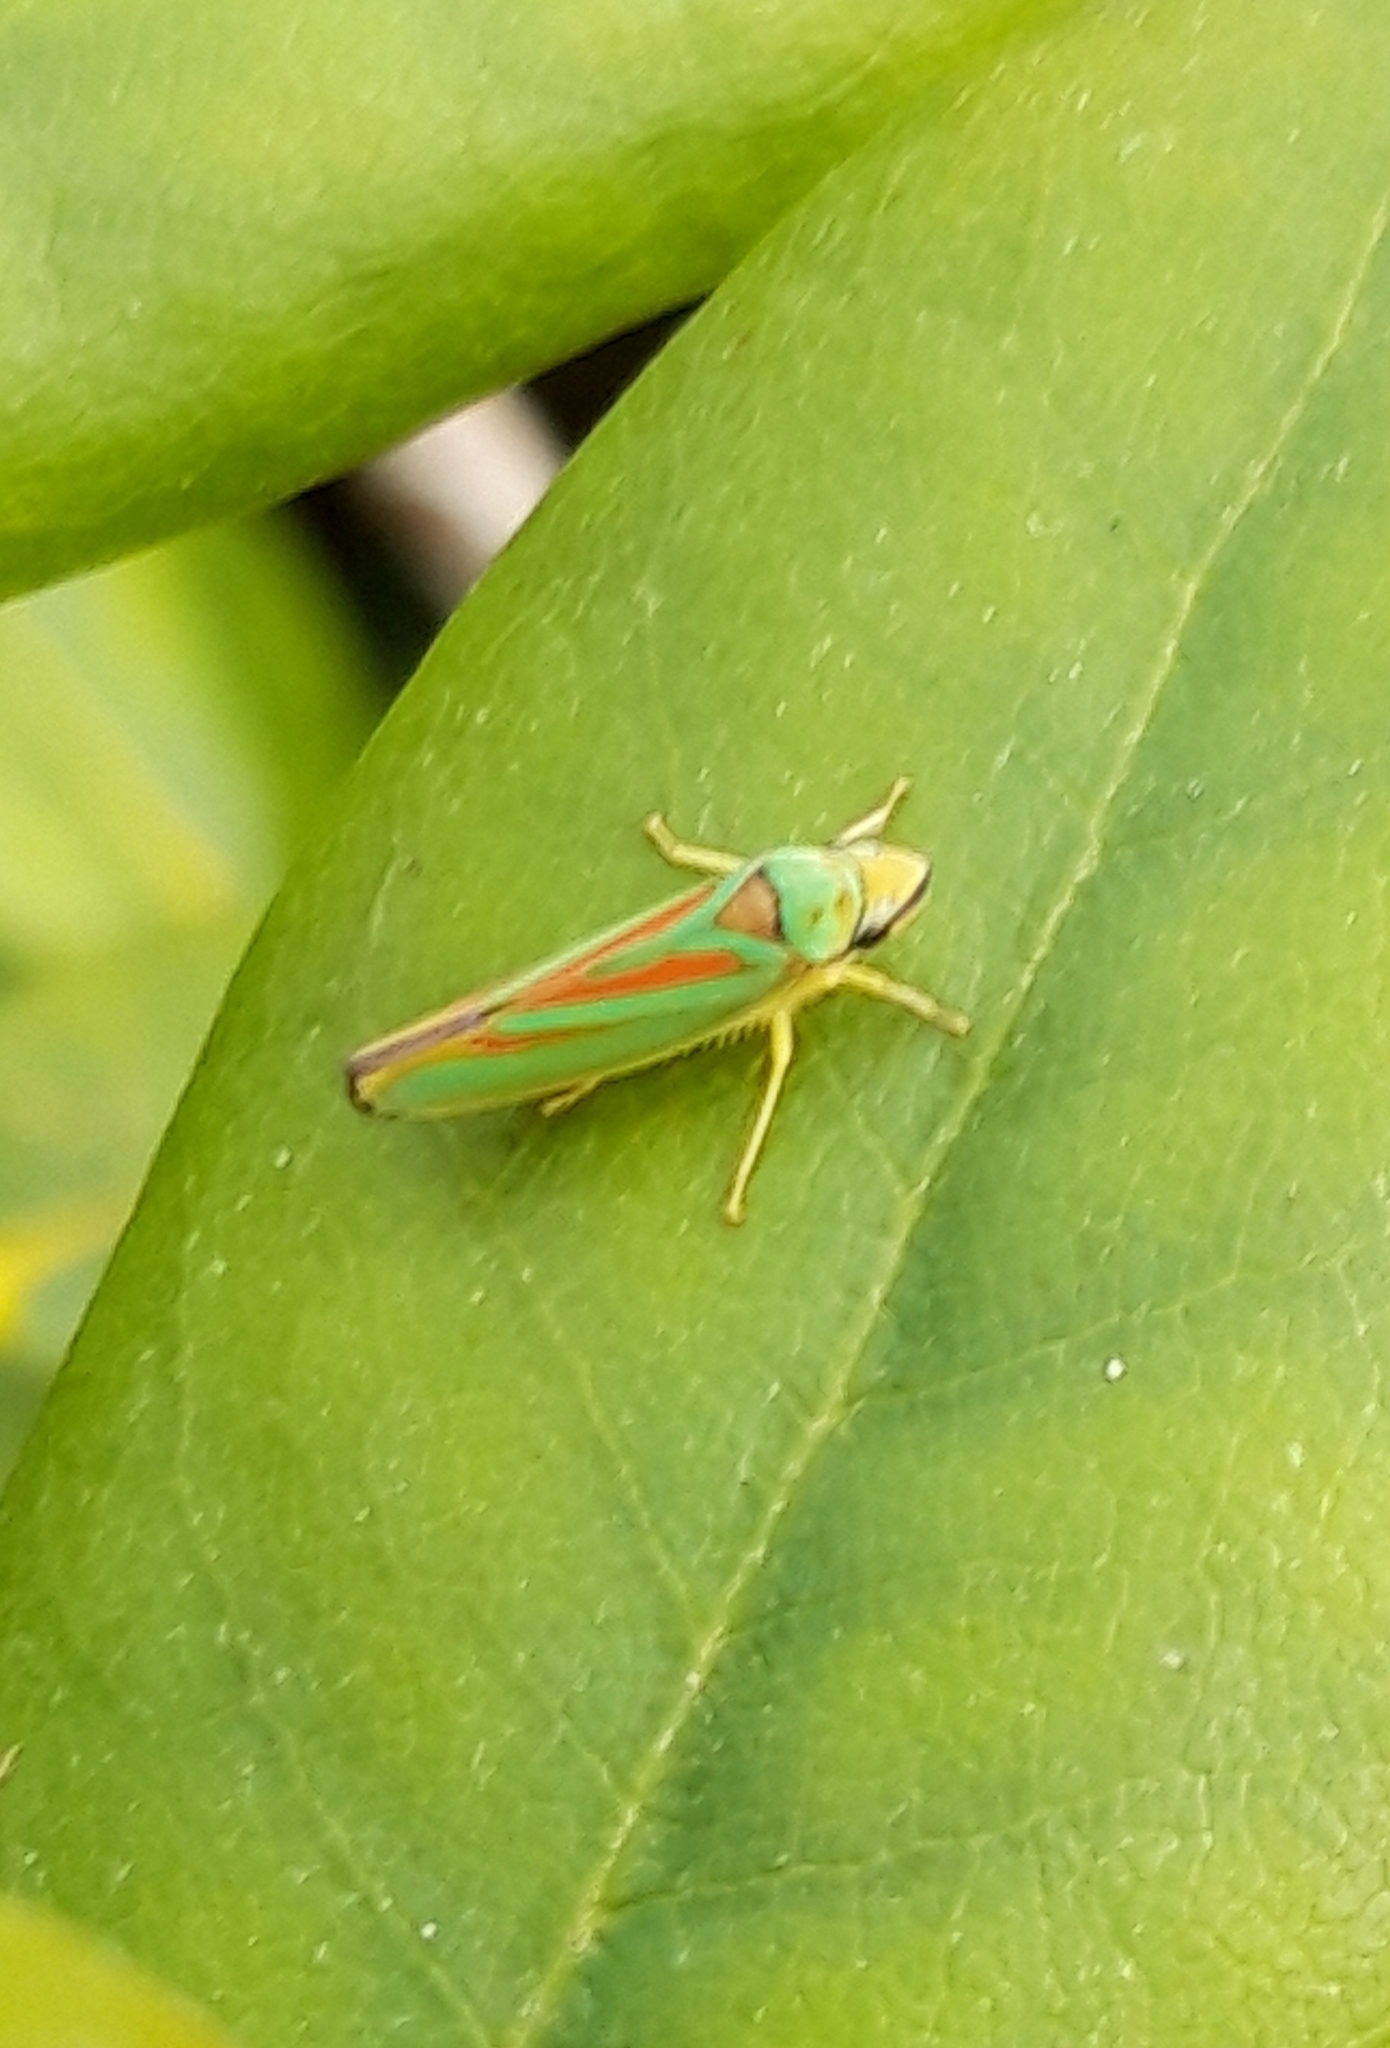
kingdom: Animalia
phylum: Arthropoda
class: Insecta
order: Hemiptera
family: Cicadellidae
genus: Graphocephala
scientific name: Graphocephala fennahi
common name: Rhododendron leafhopper
